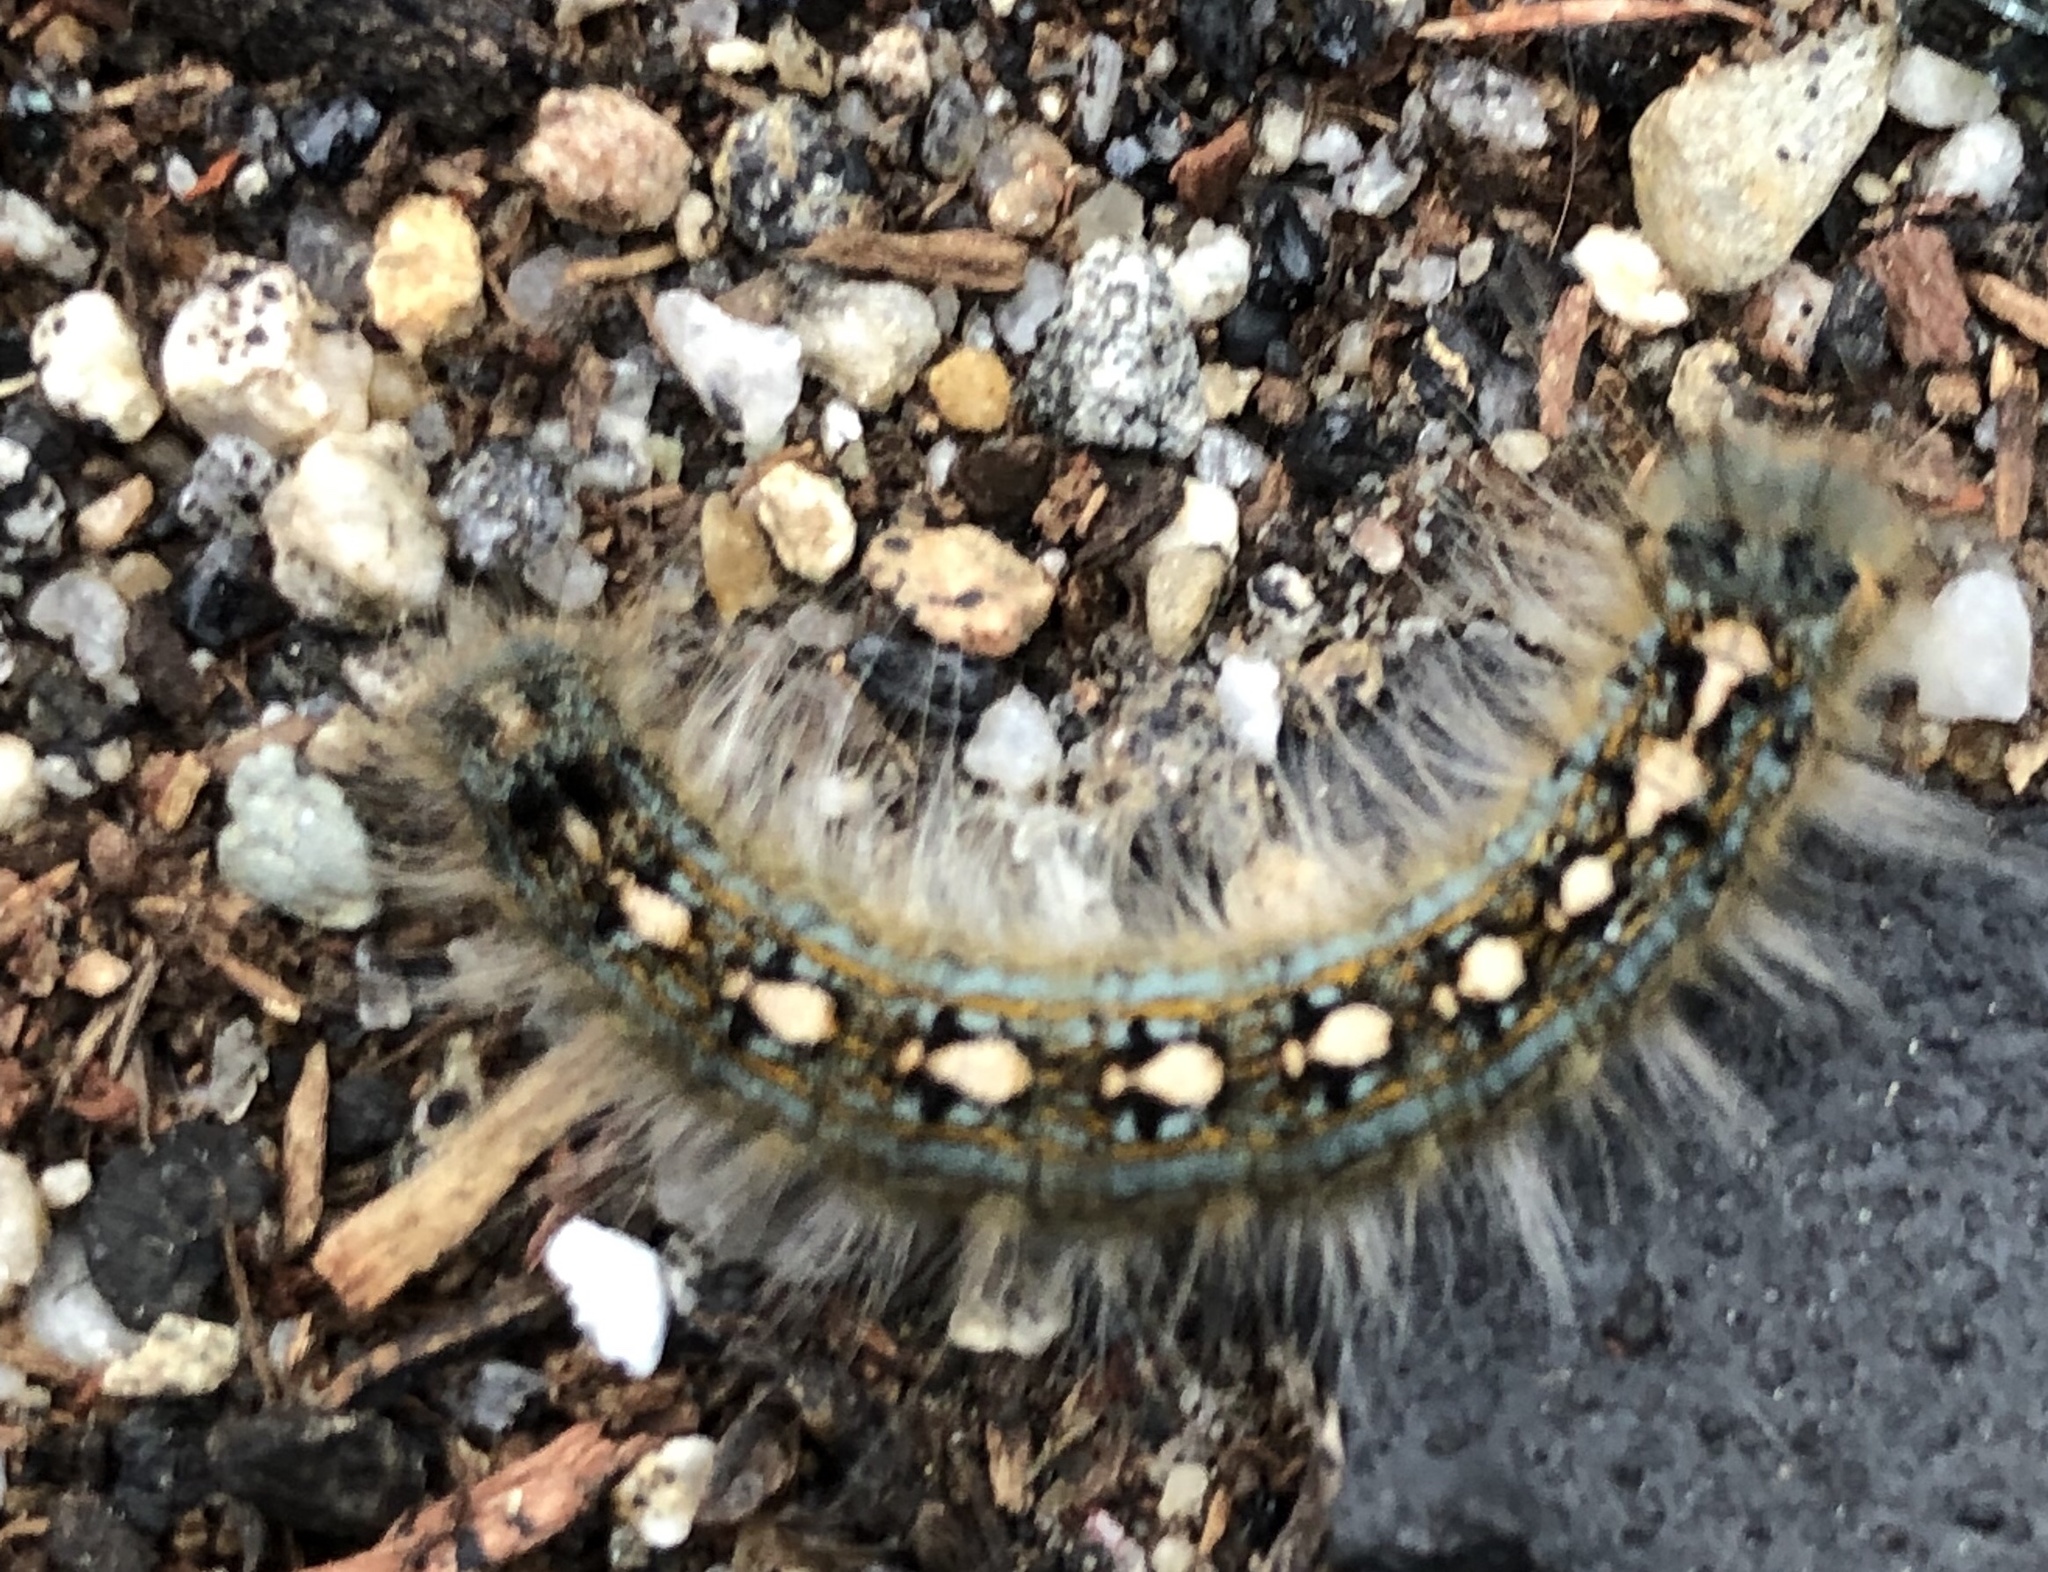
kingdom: Animalia
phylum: Arthropoda
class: Insecta
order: Lepidoptera
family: Lasiocampidae
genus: Malacosoma
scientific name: Malacosoma disstria
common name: Forest tent caterpillar
